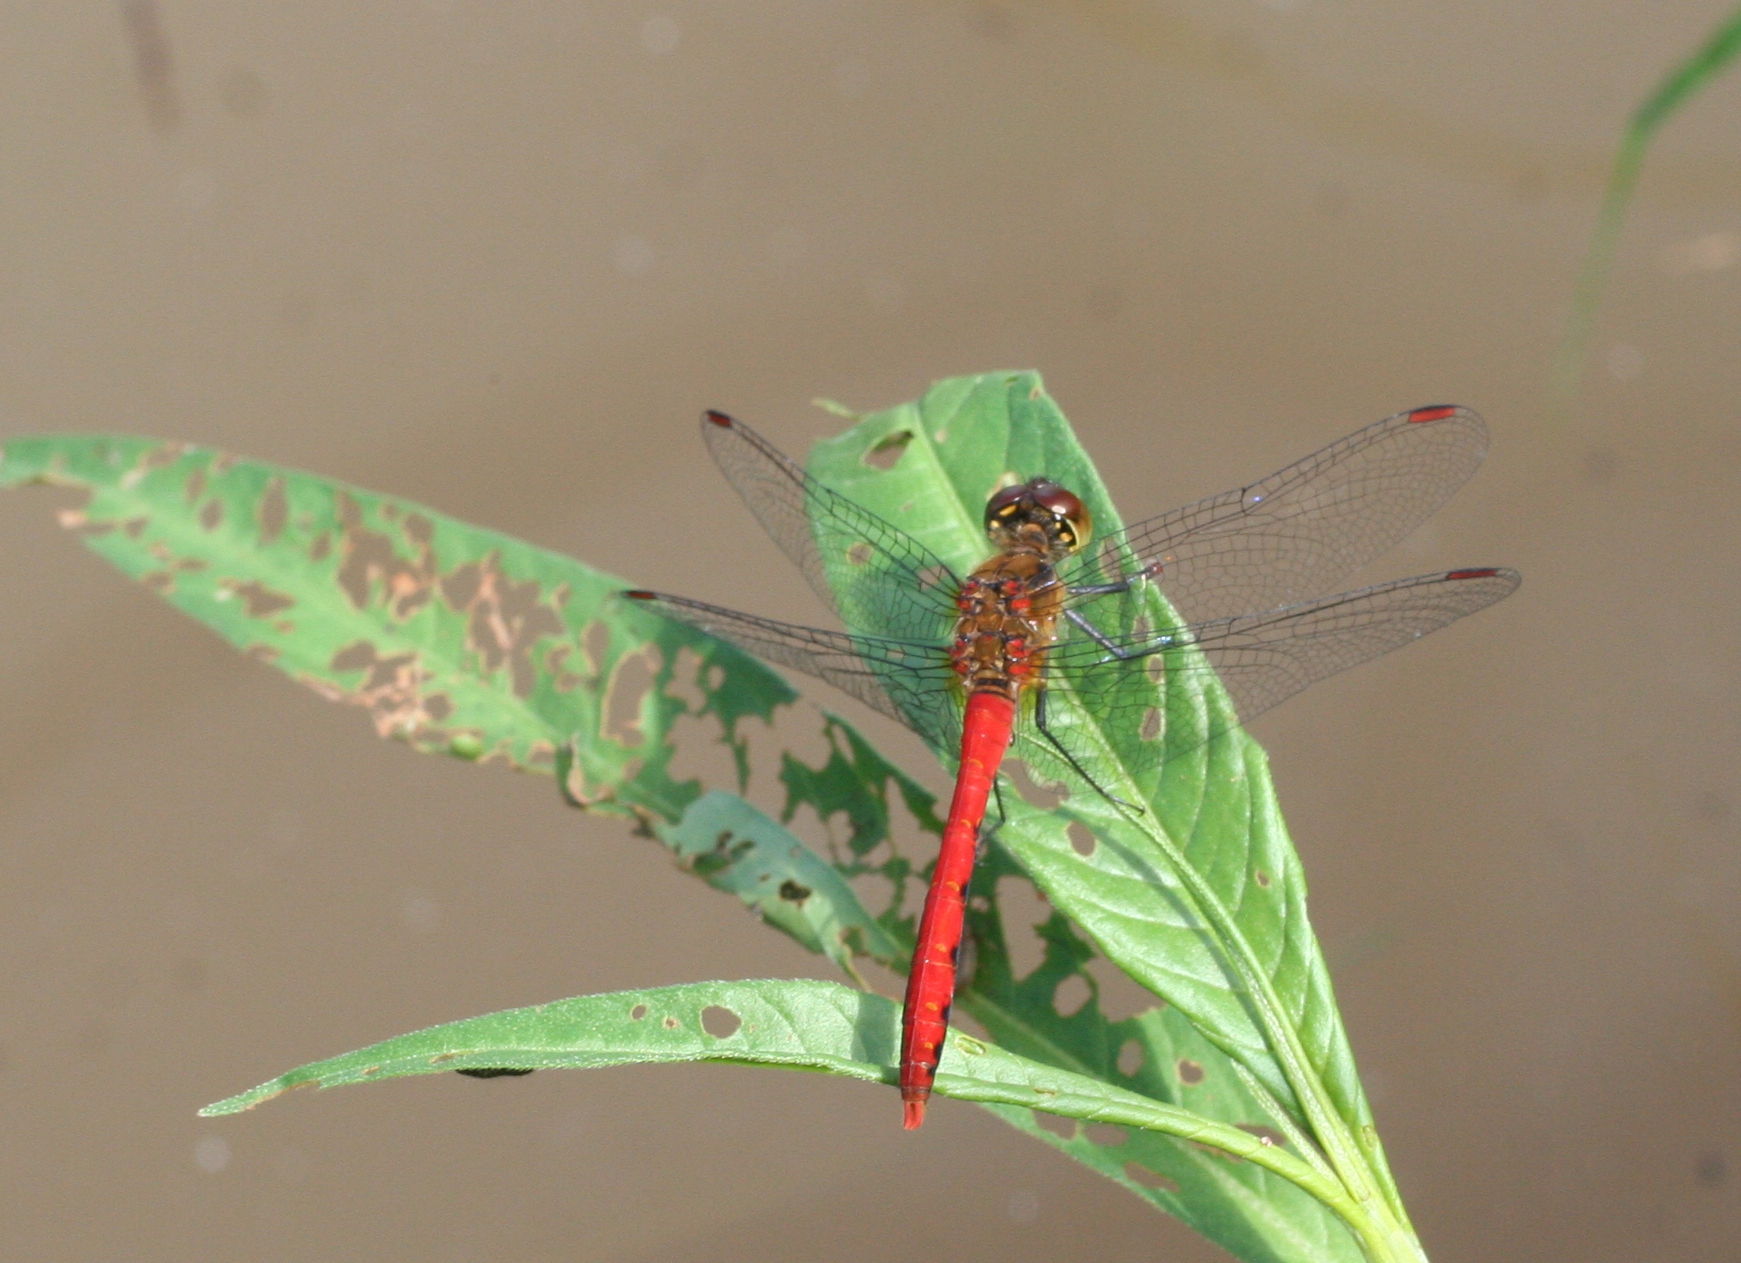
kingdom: Animalia
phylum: Arthropoda
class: Insecta
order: Odonata
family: Libellulidae
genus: Sympetrum
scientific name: Sympetrum eroticum
